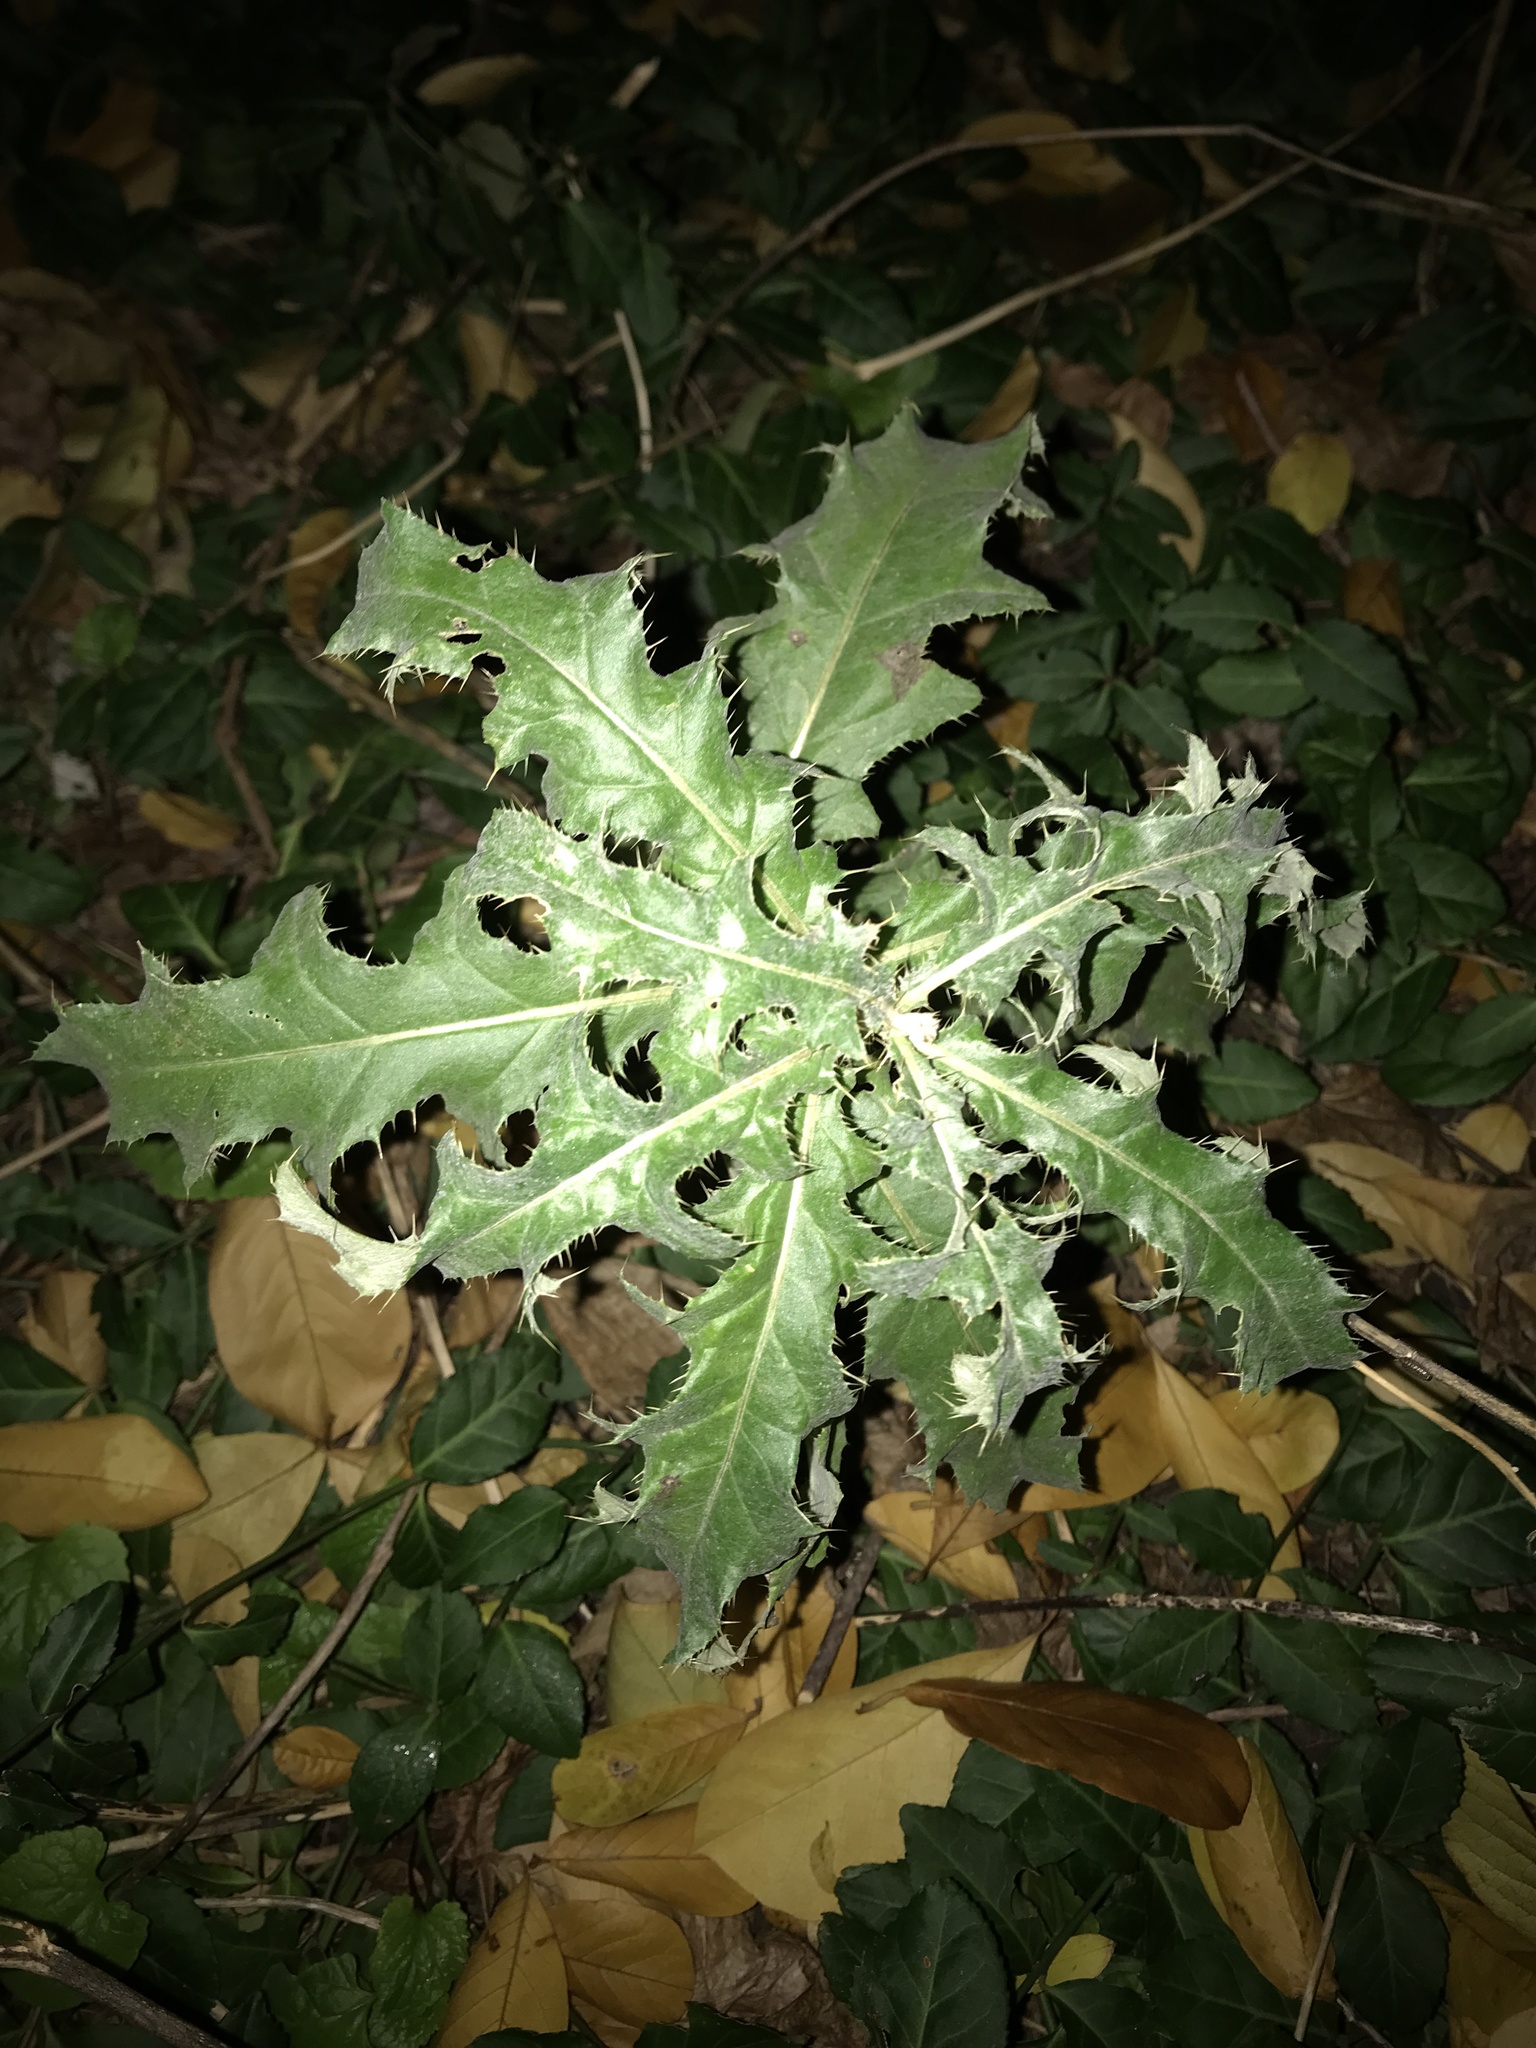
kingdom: Plantae
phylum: Tracheophyta
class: Magnoliopsida
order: Asterales
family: Asteraceae
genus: Cirsium
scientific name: Cirsium arvense
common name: Creeping thistle
